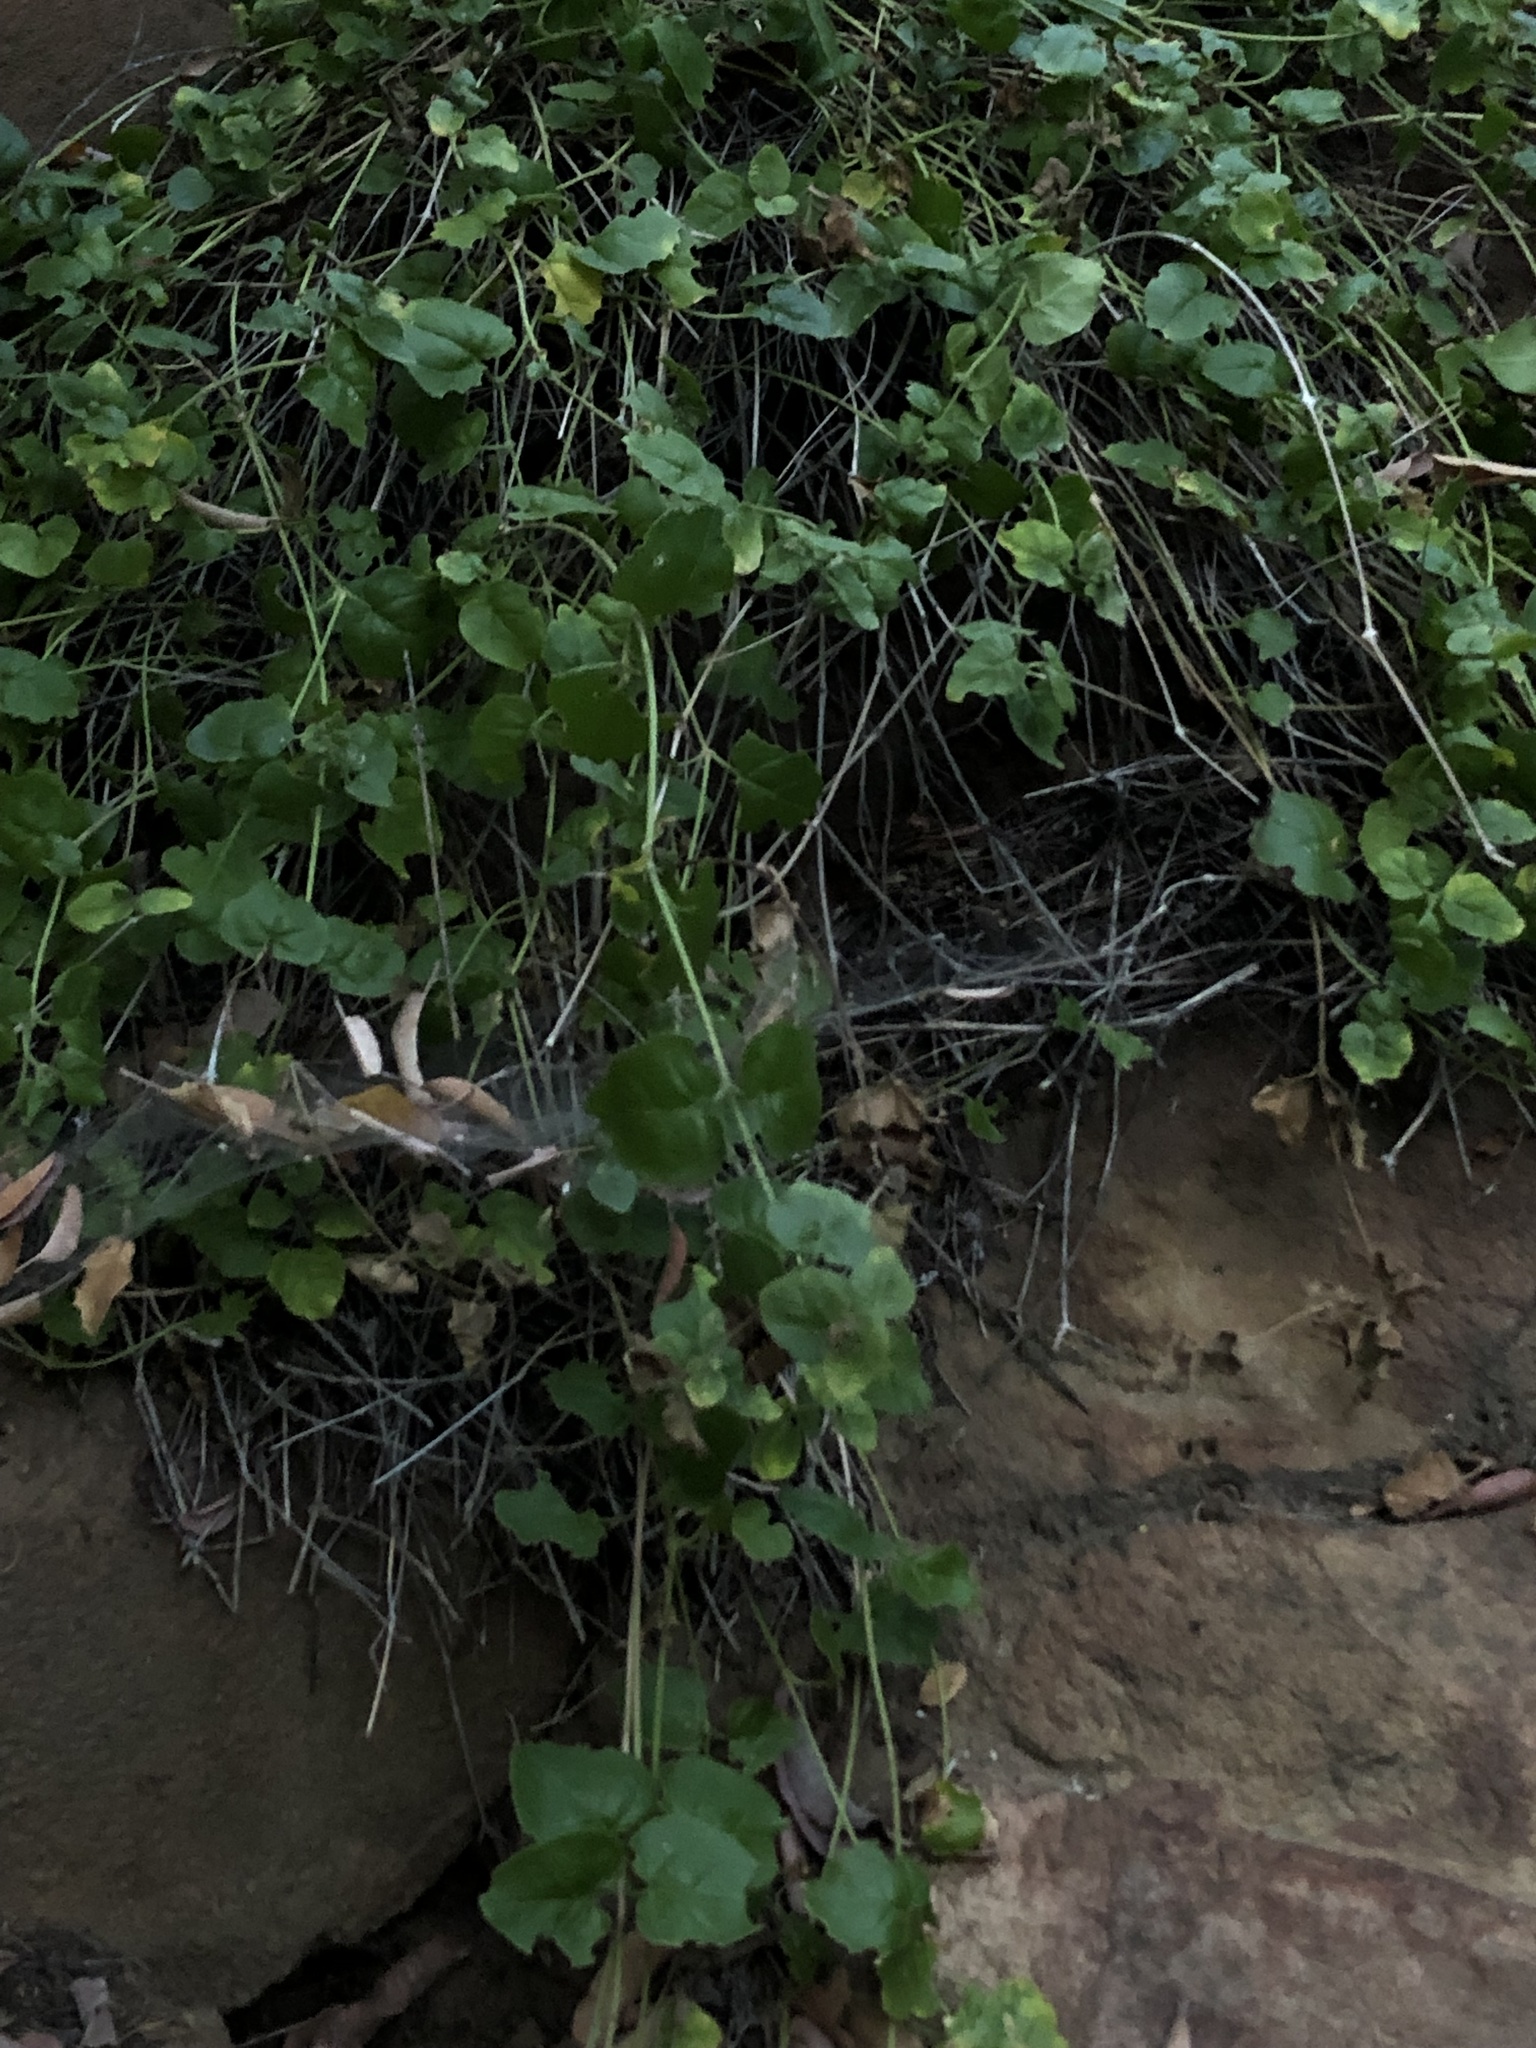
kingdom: Plantae
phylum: Tracheophyta
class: Magnoliopsida
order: Lamiales
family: Lamiaceae
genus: Micromeria
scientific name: Micromeria douglasii
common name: Yerba buena
